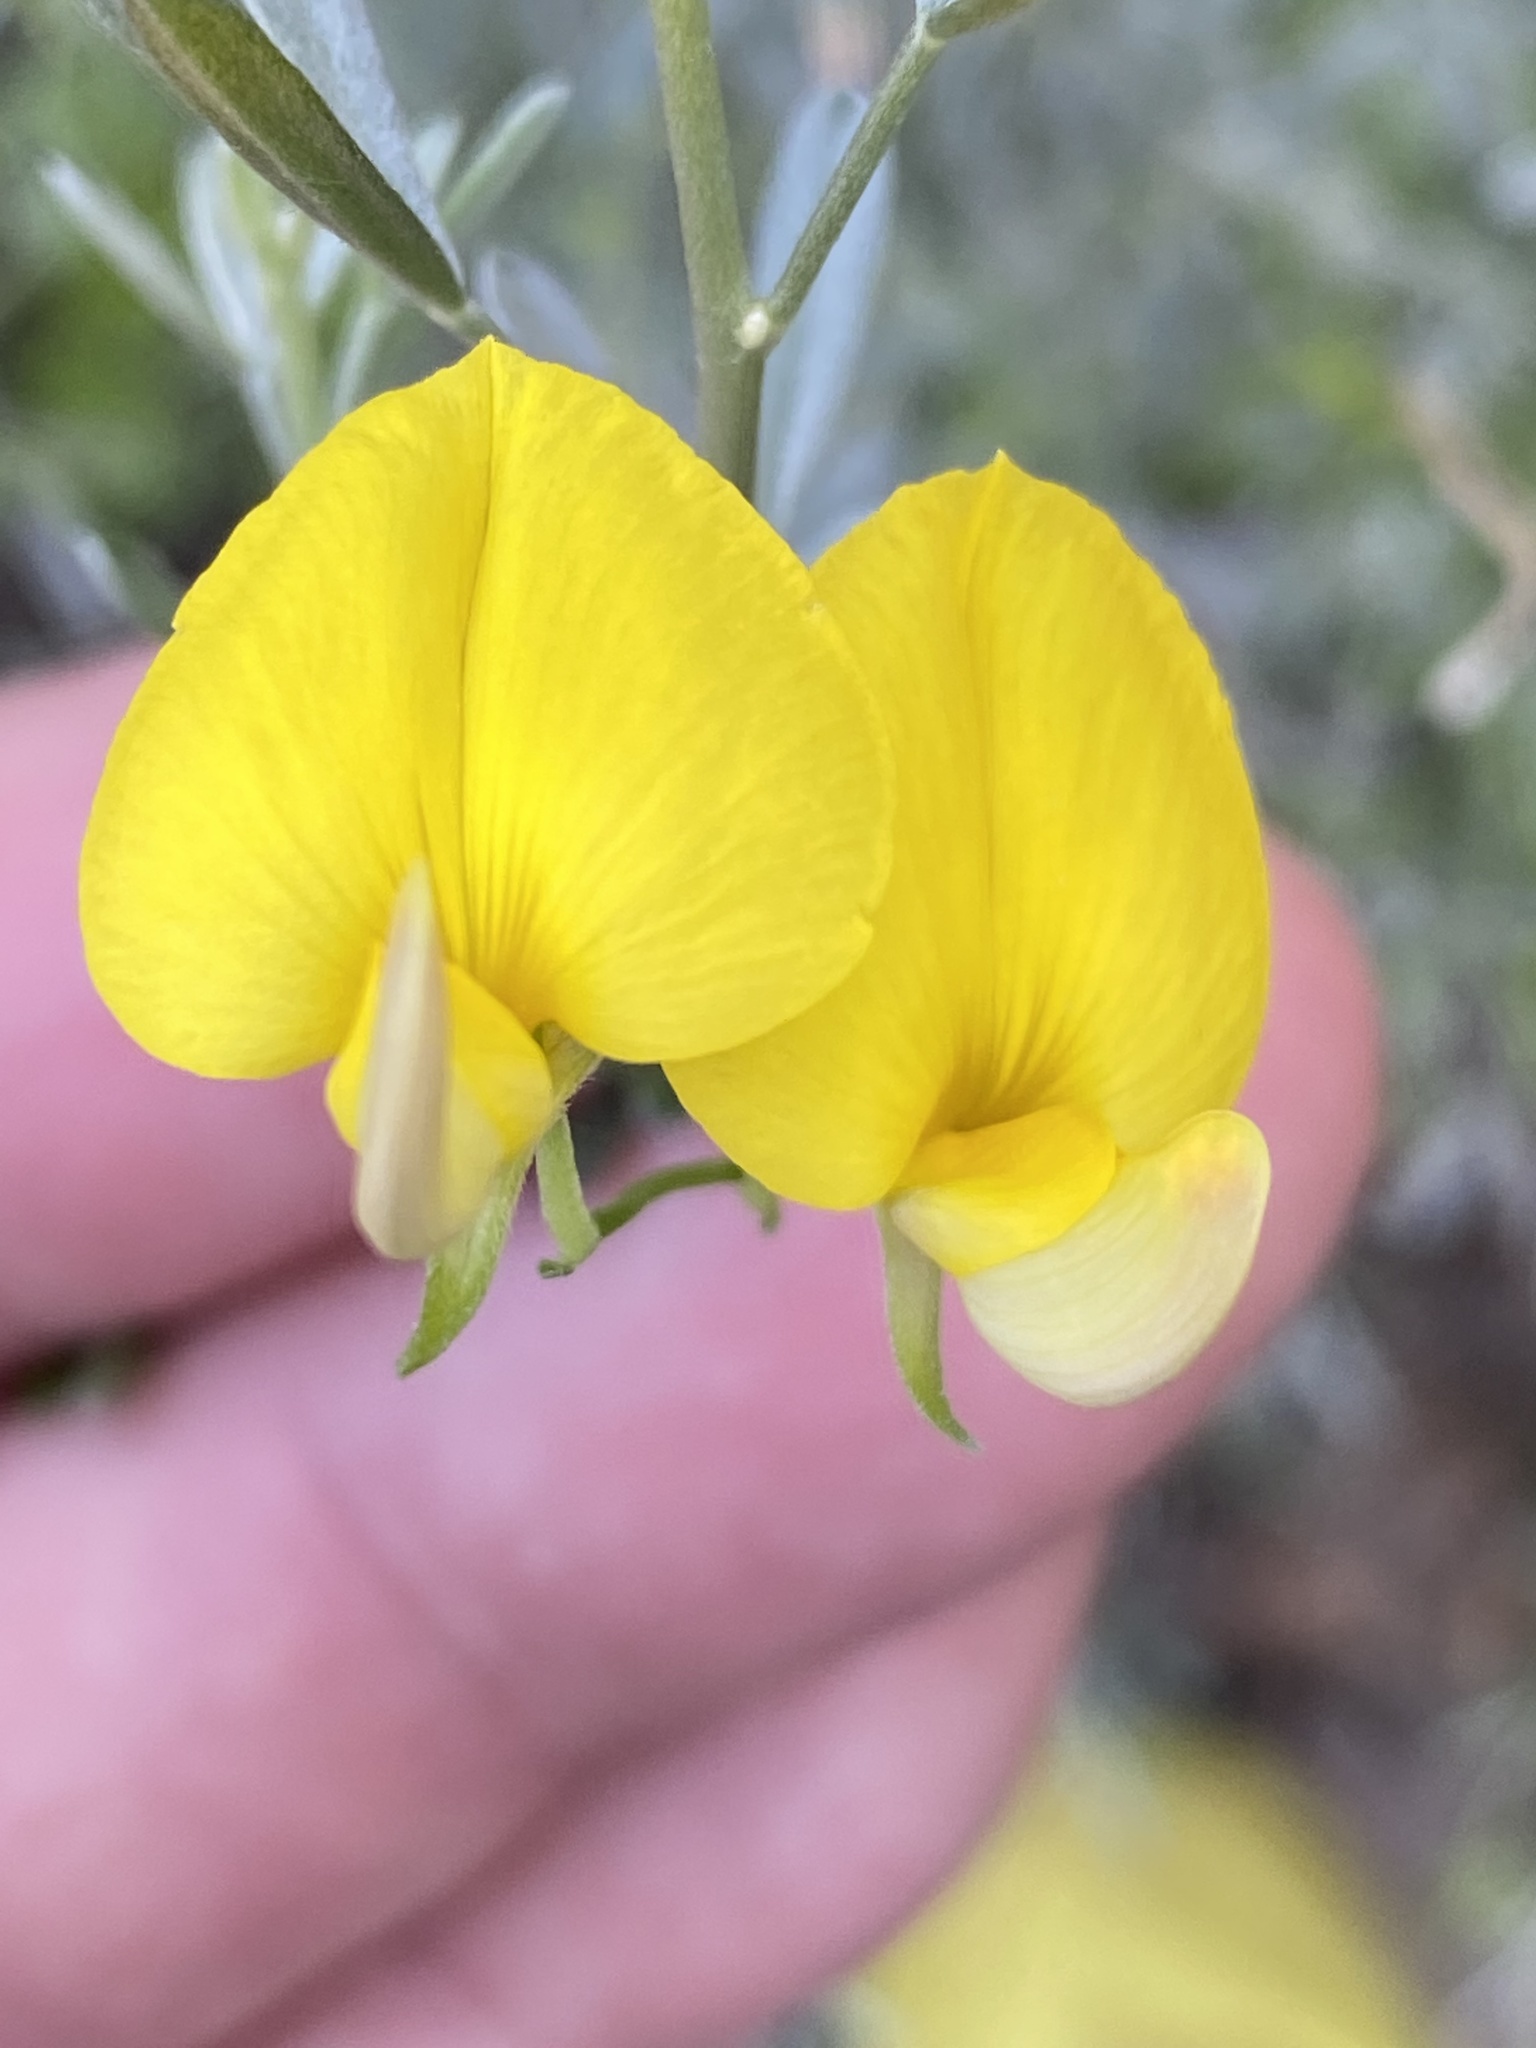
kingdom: Plantae
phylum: Tracheophyta
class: Magnoliopsida
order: Fabales
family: Fabaceae
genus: Lotononis
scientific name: Lotononis acocksii
